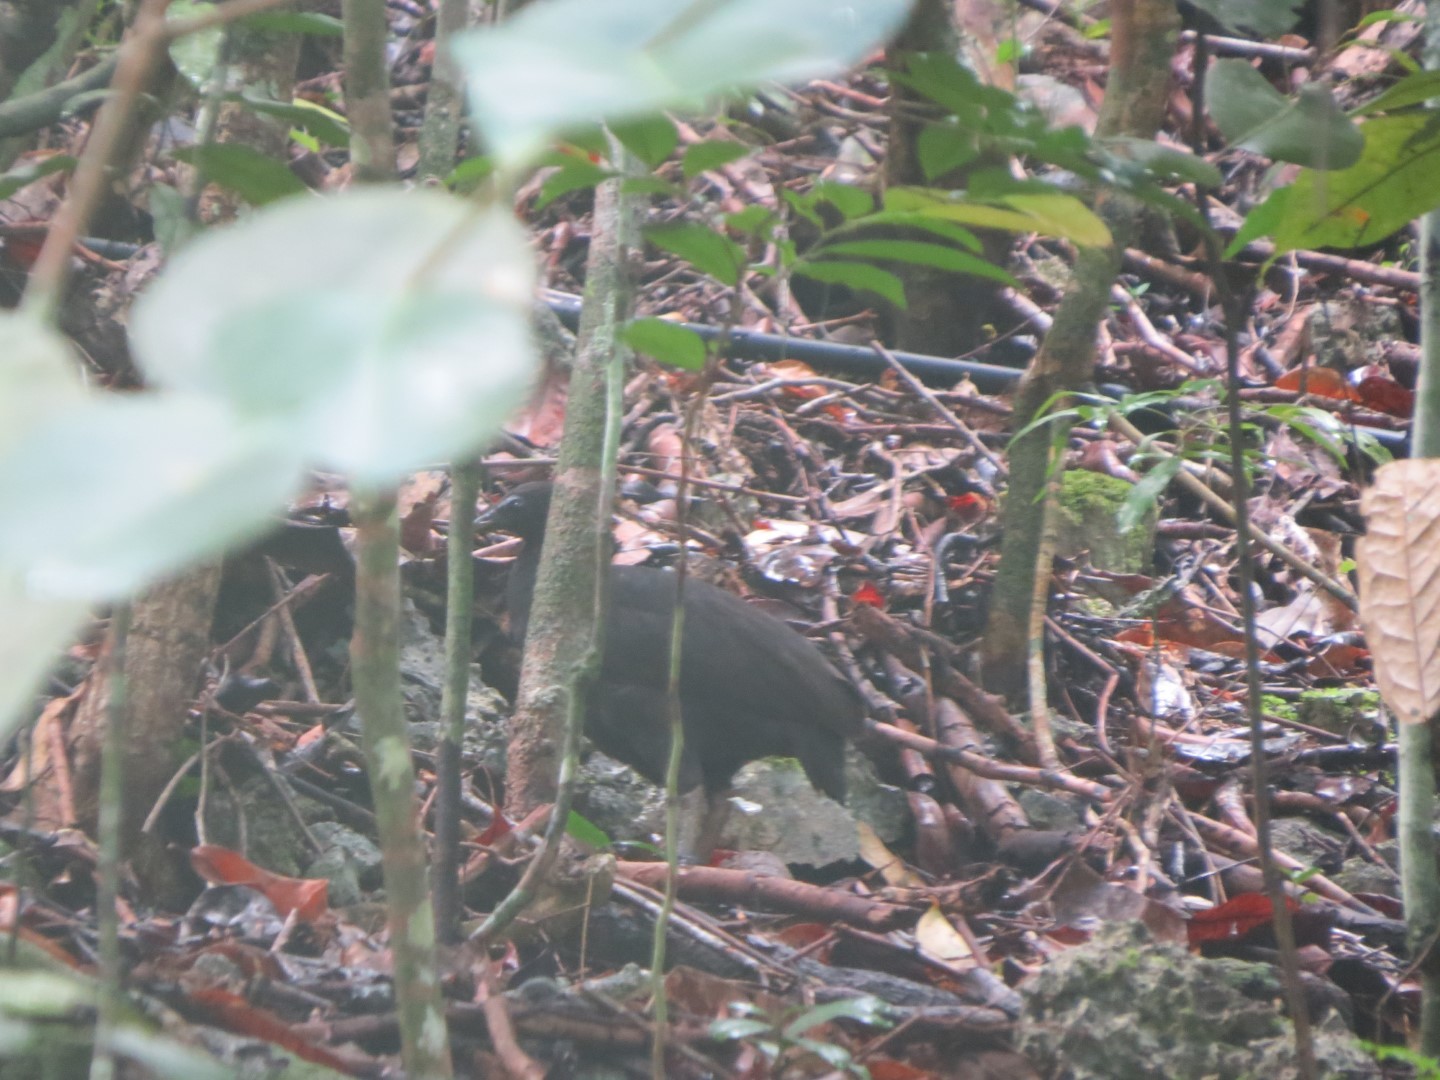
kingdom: Animalia
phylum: Chordata
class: Aves
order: Galliformes
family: Megapodiidae
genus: Megapodius
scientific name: Megapodius freycinet
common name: Dusky megapode
